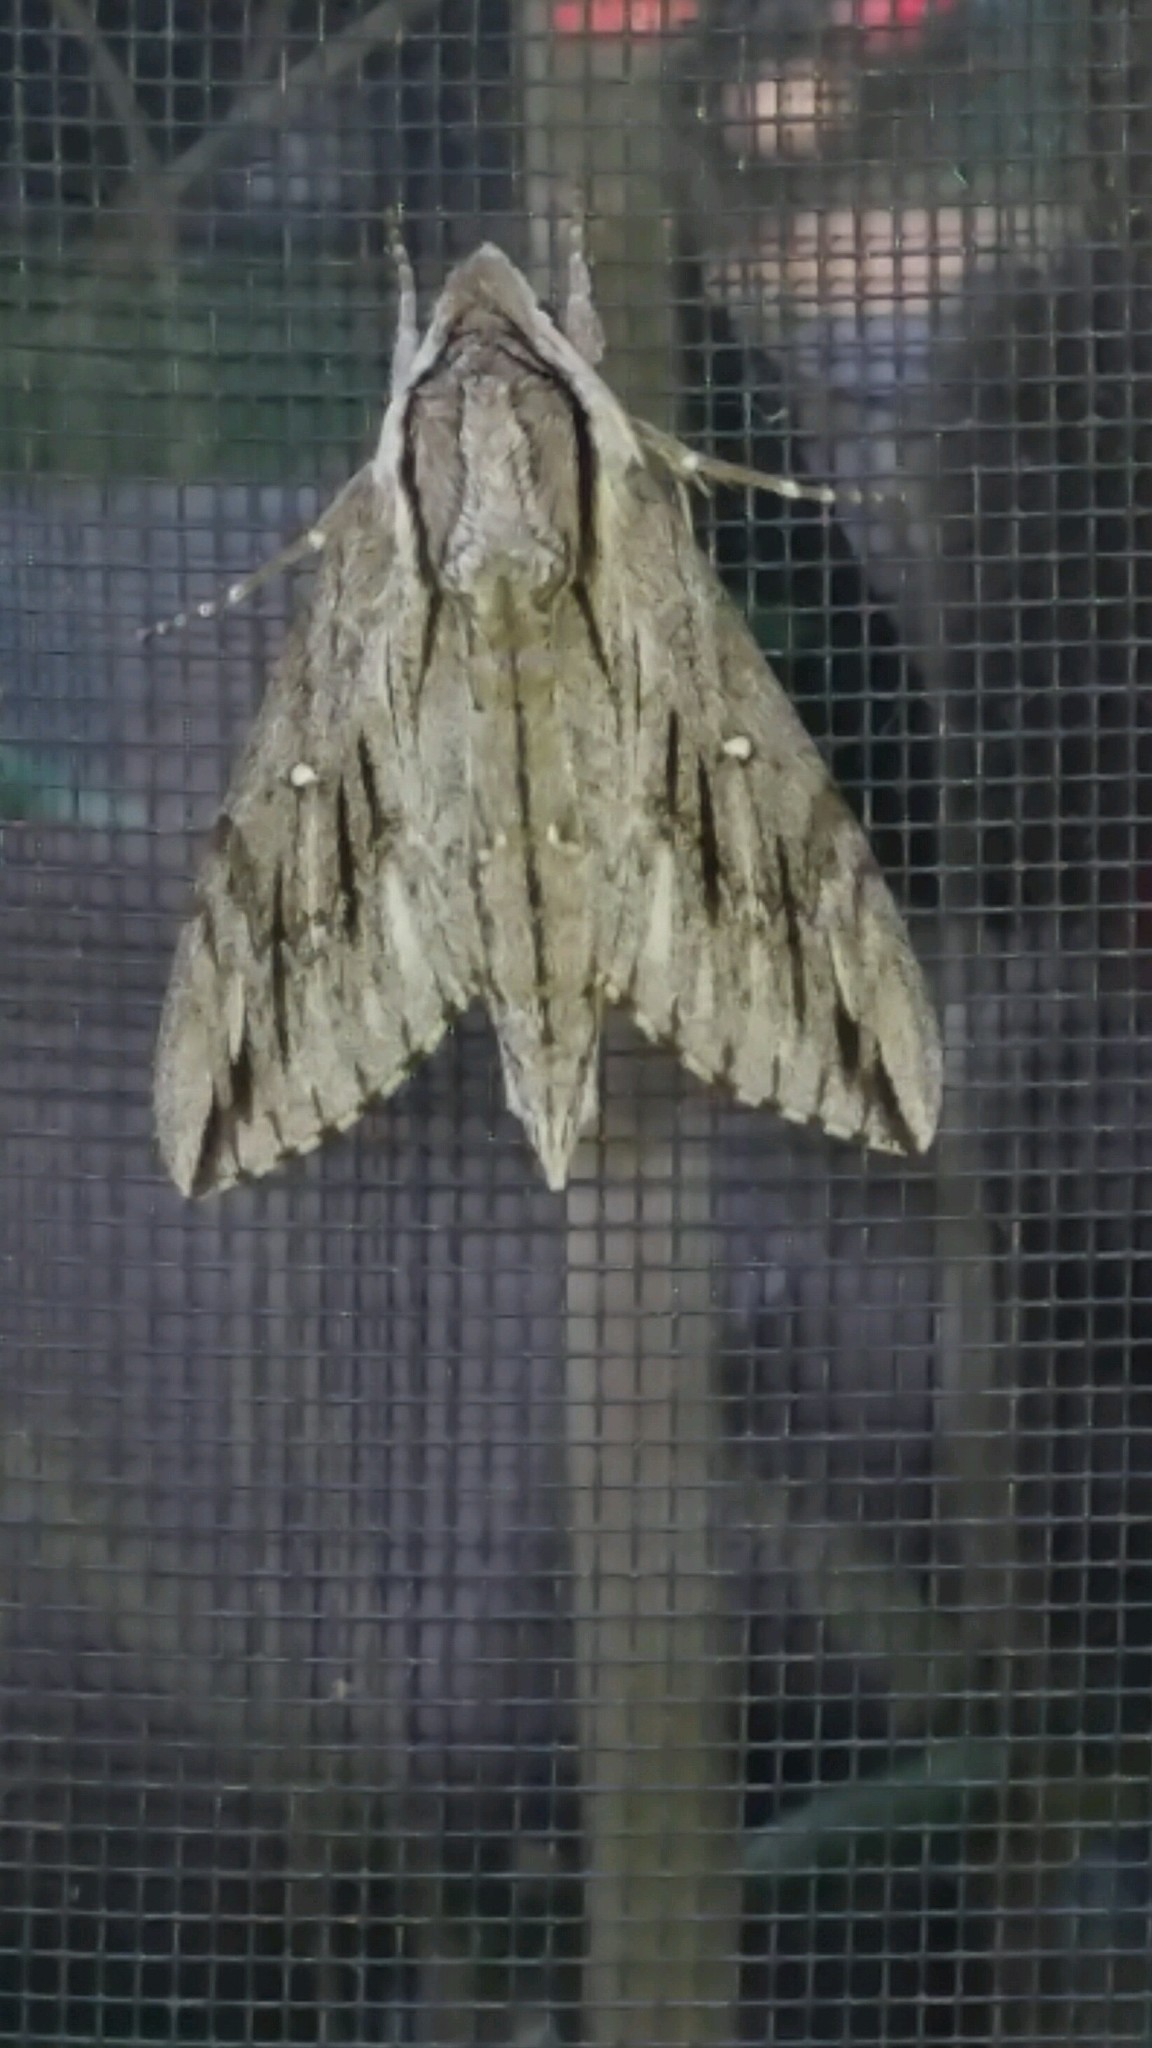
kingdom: Animalia
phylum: Arthropoda
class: Insecta
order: Lepidoptera
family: Sphingidae
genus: Paratrea
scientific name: Paratrea plebeja
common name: Plebian sphinx
